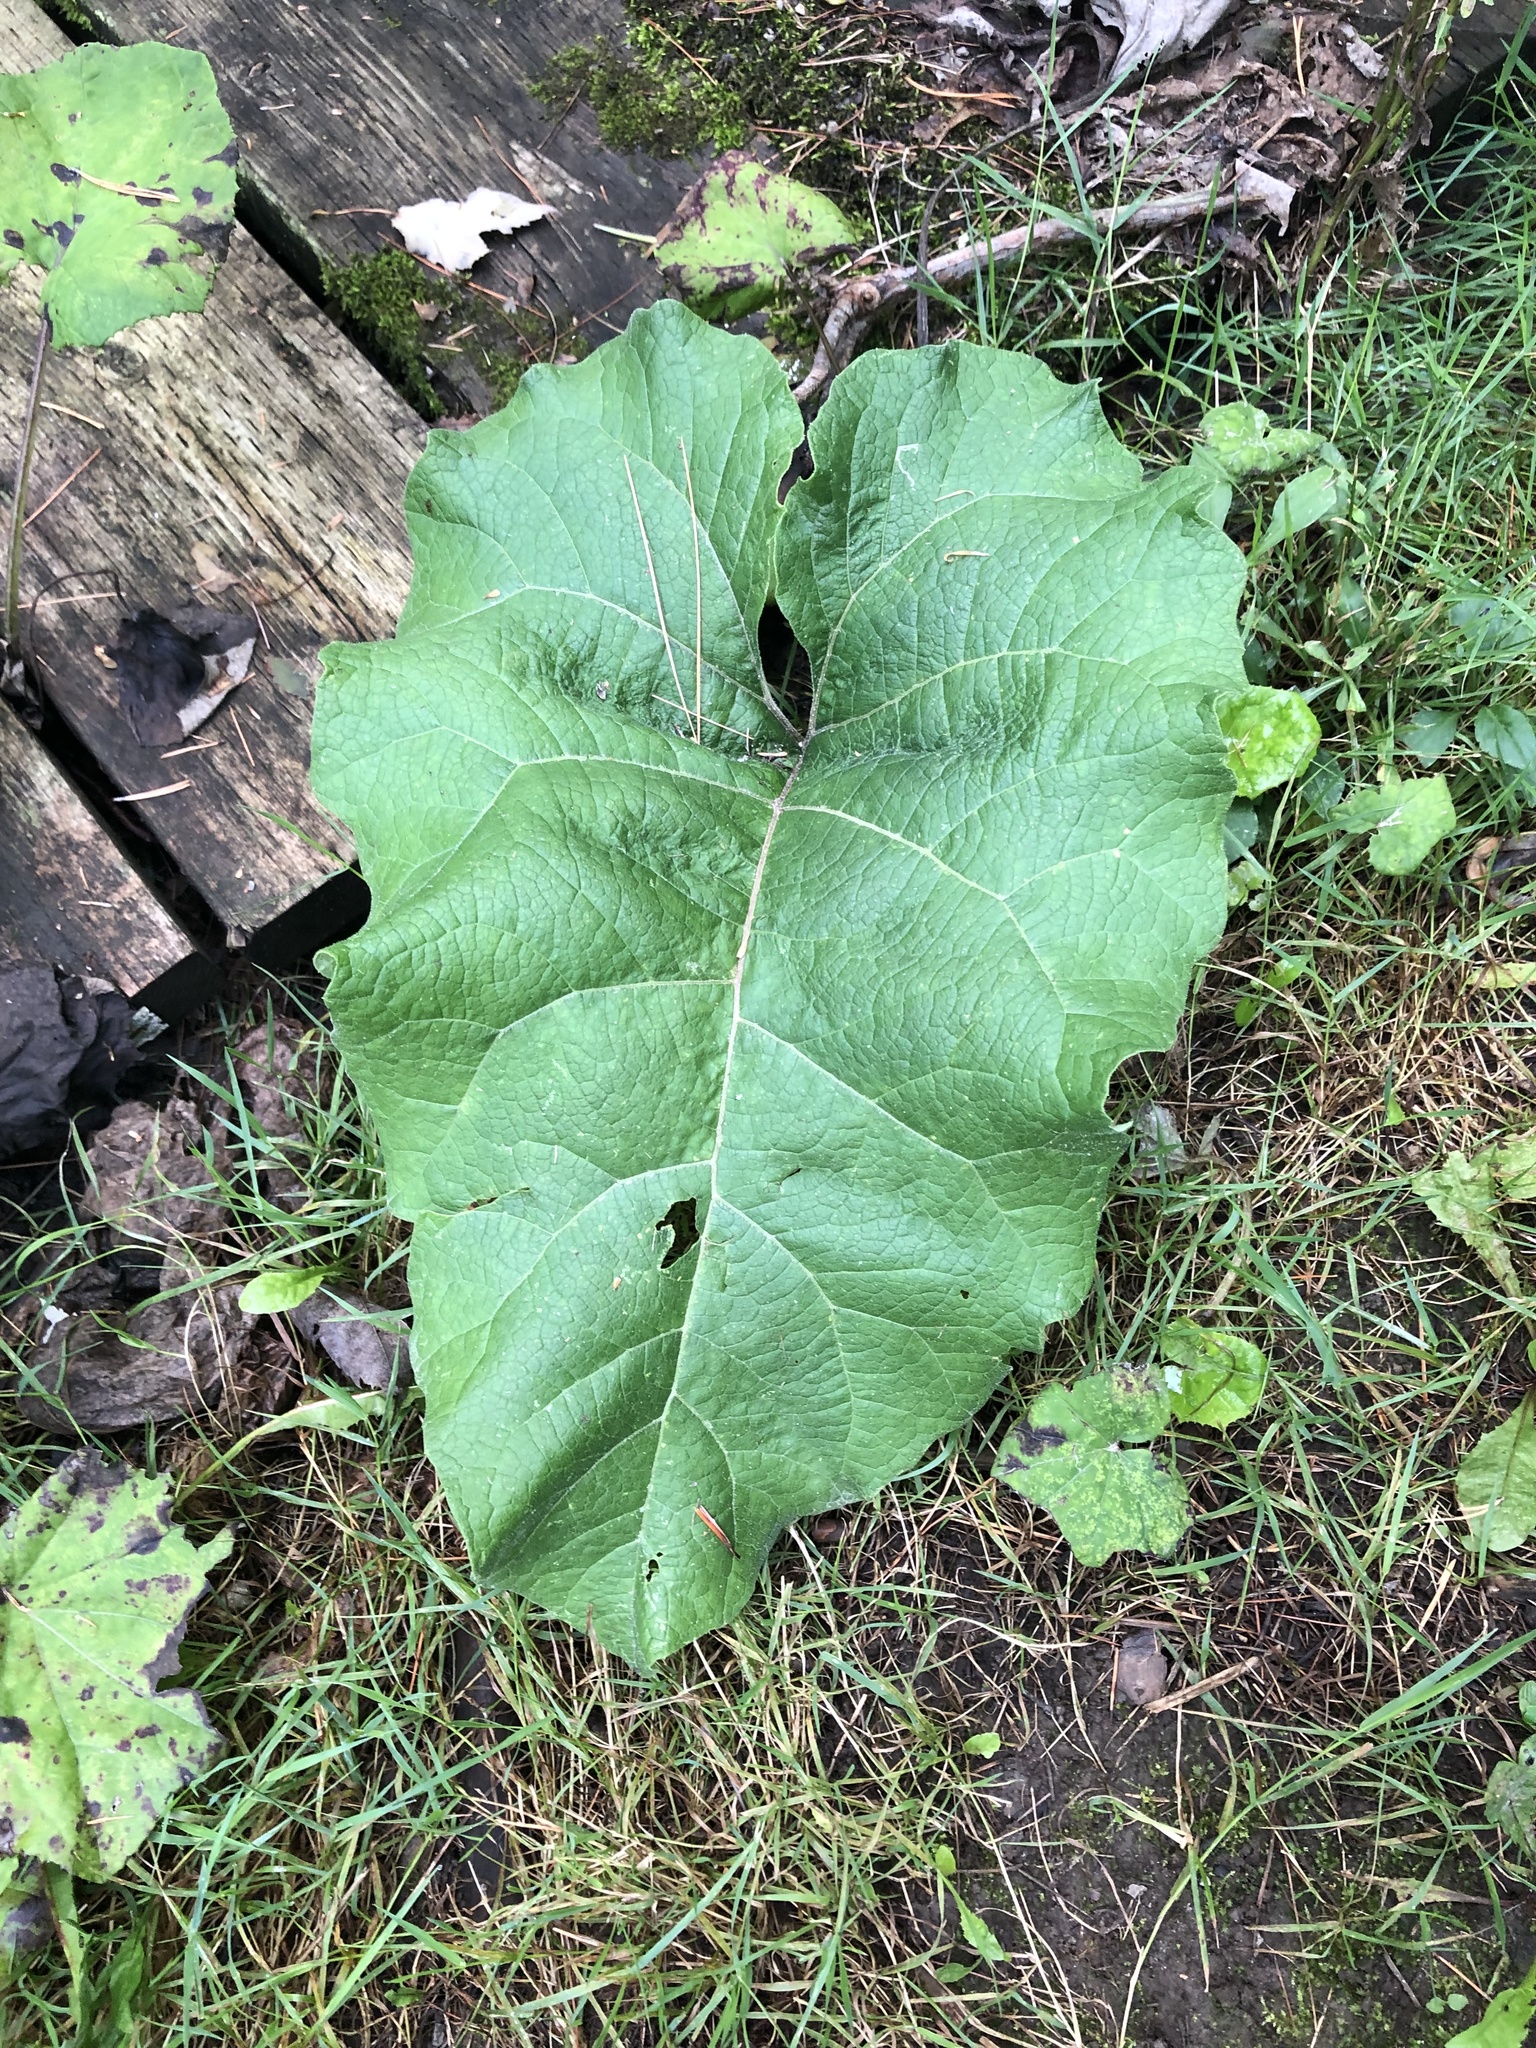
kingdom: Plantae
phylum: Tracheophyta
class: Magnoliopsida
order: Asterales
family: Asteraceae
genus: Arctium
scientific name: Arctium
